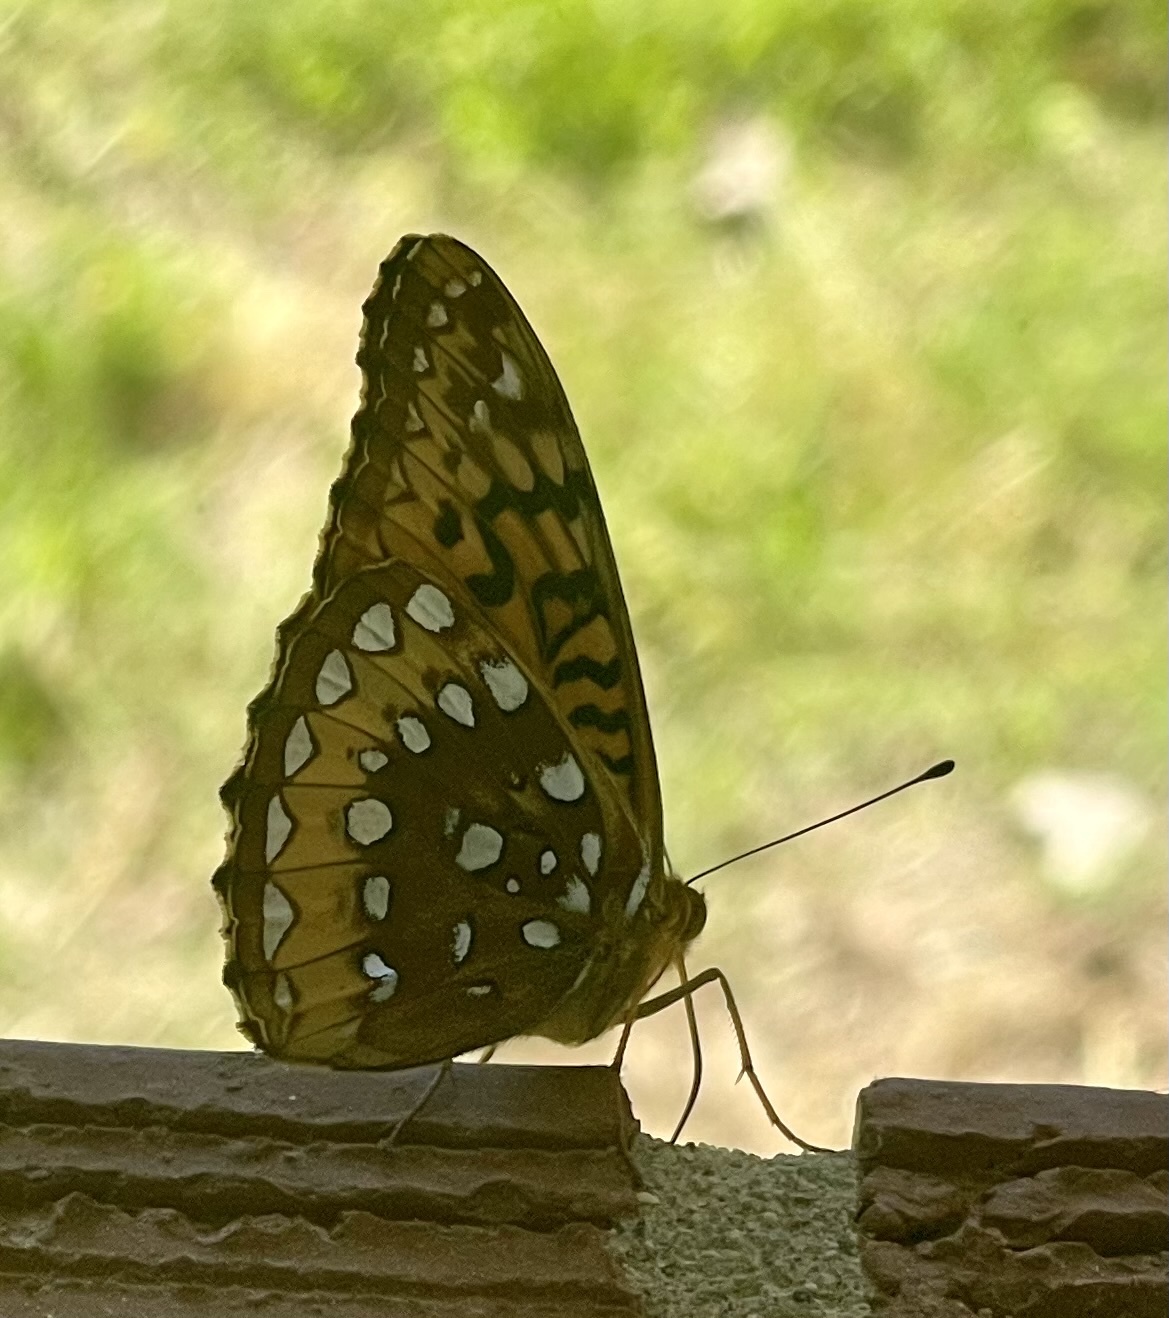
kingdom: Animalia
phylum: Arthropoda
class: Insecta
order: Lepidoptera
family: Nymphalidae
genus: Speyeria
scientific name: Speyeria cybele
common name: Great spangled fritillary
